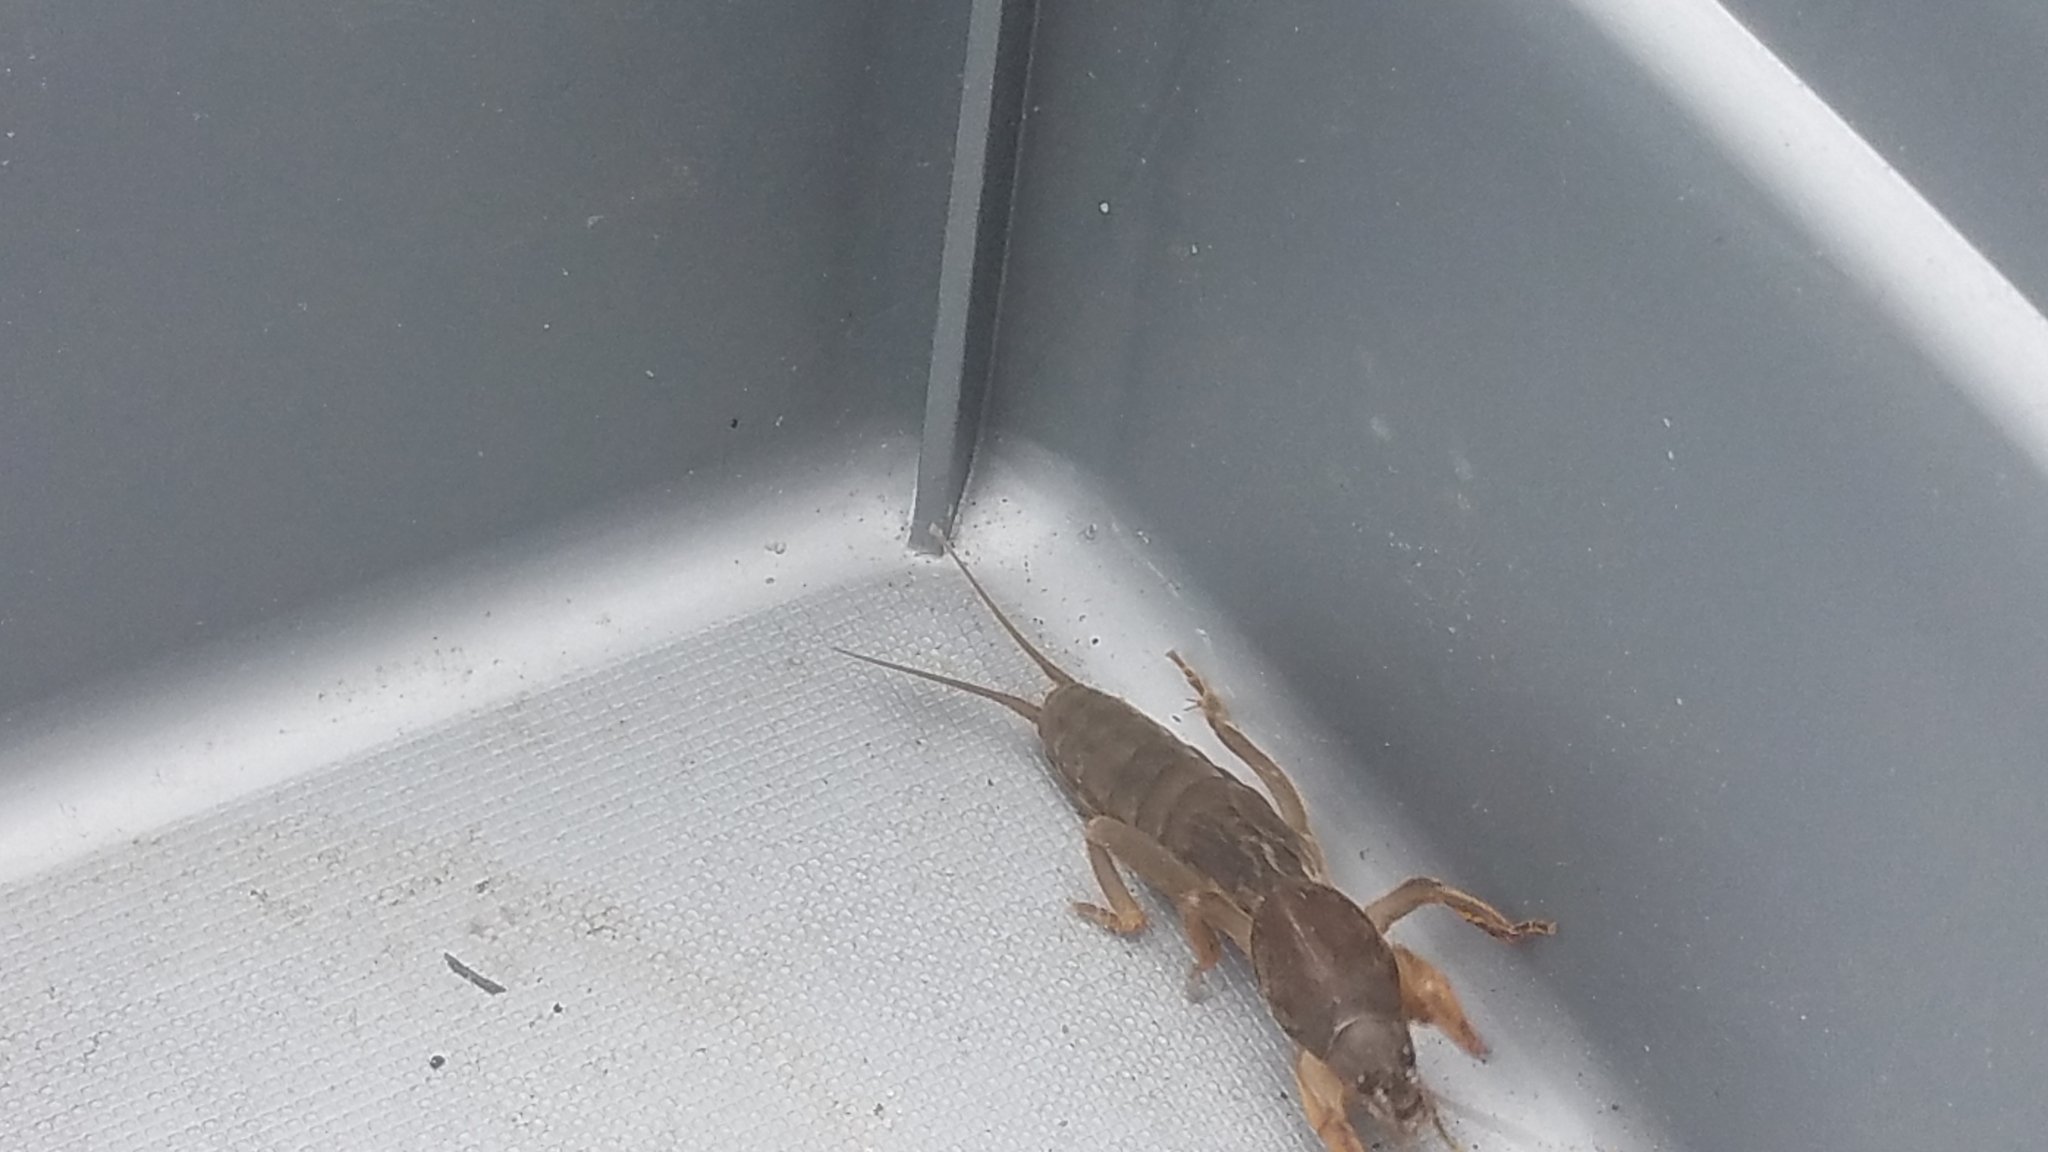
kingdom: Animalia
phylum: Arthropoda
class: Insecta
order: Orthoptera
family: Gryllotalpidae
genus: Neocurtilla
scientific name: Neocurtilla hexadactyla
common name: Northern mole cricket
